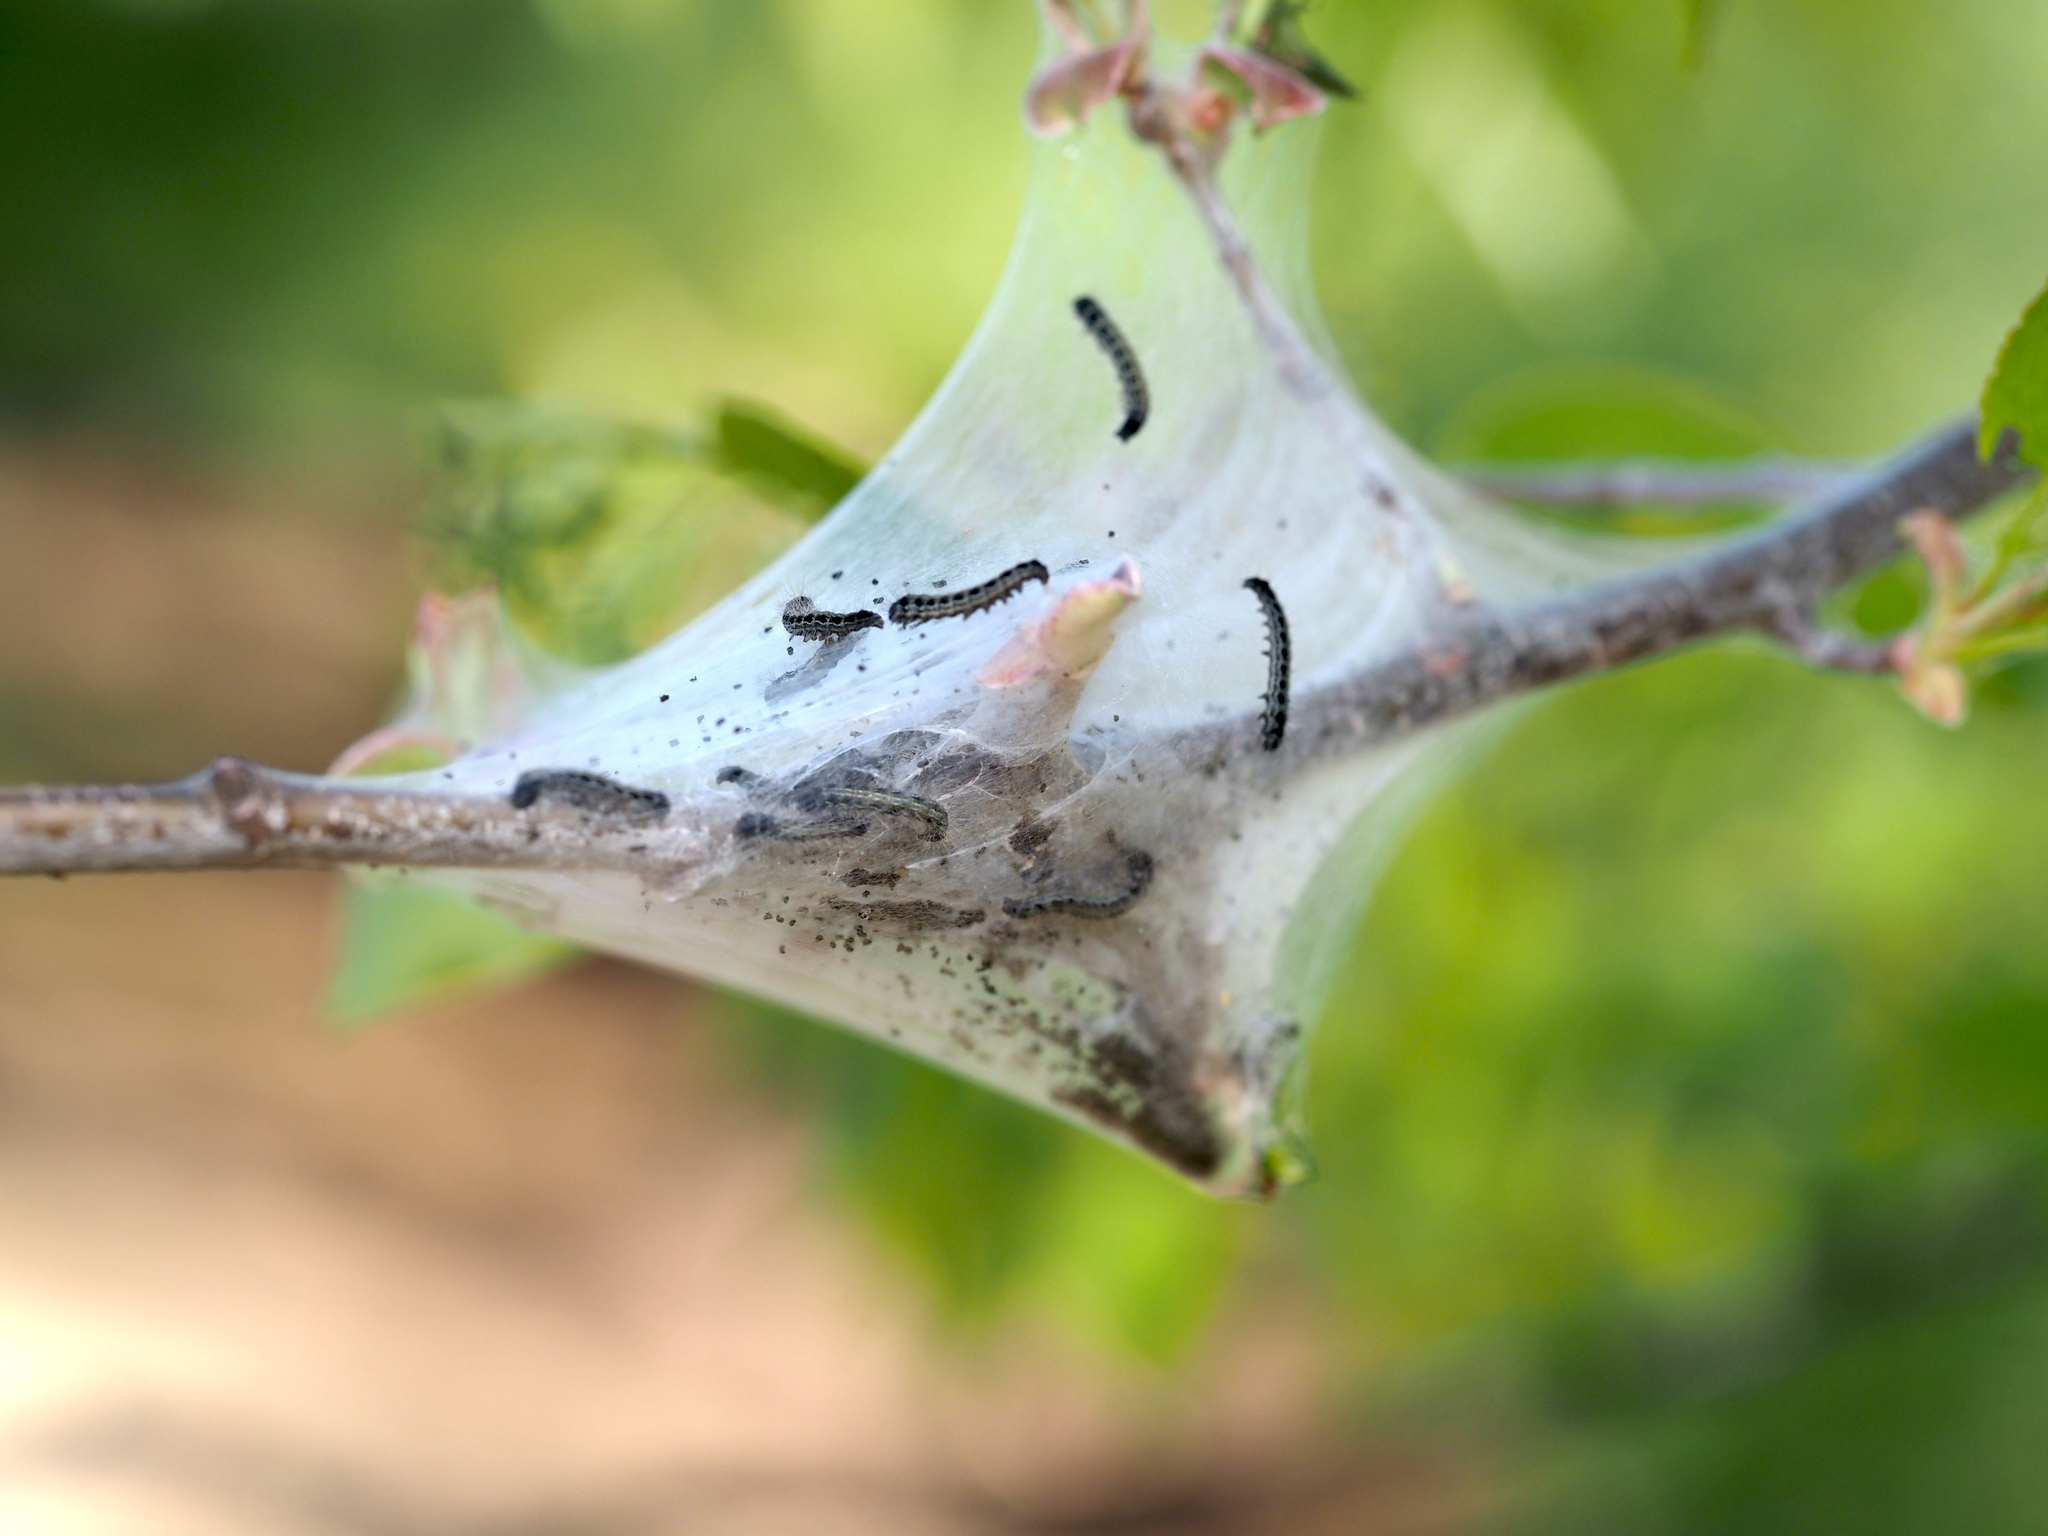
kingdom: Animalia
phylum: Arthropoda
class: Insecta
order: Lepidoptera
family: Lasiocampidae
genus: Malacosoma
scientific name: Malacosoma americana
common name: Eastern tent caterpillar moth
